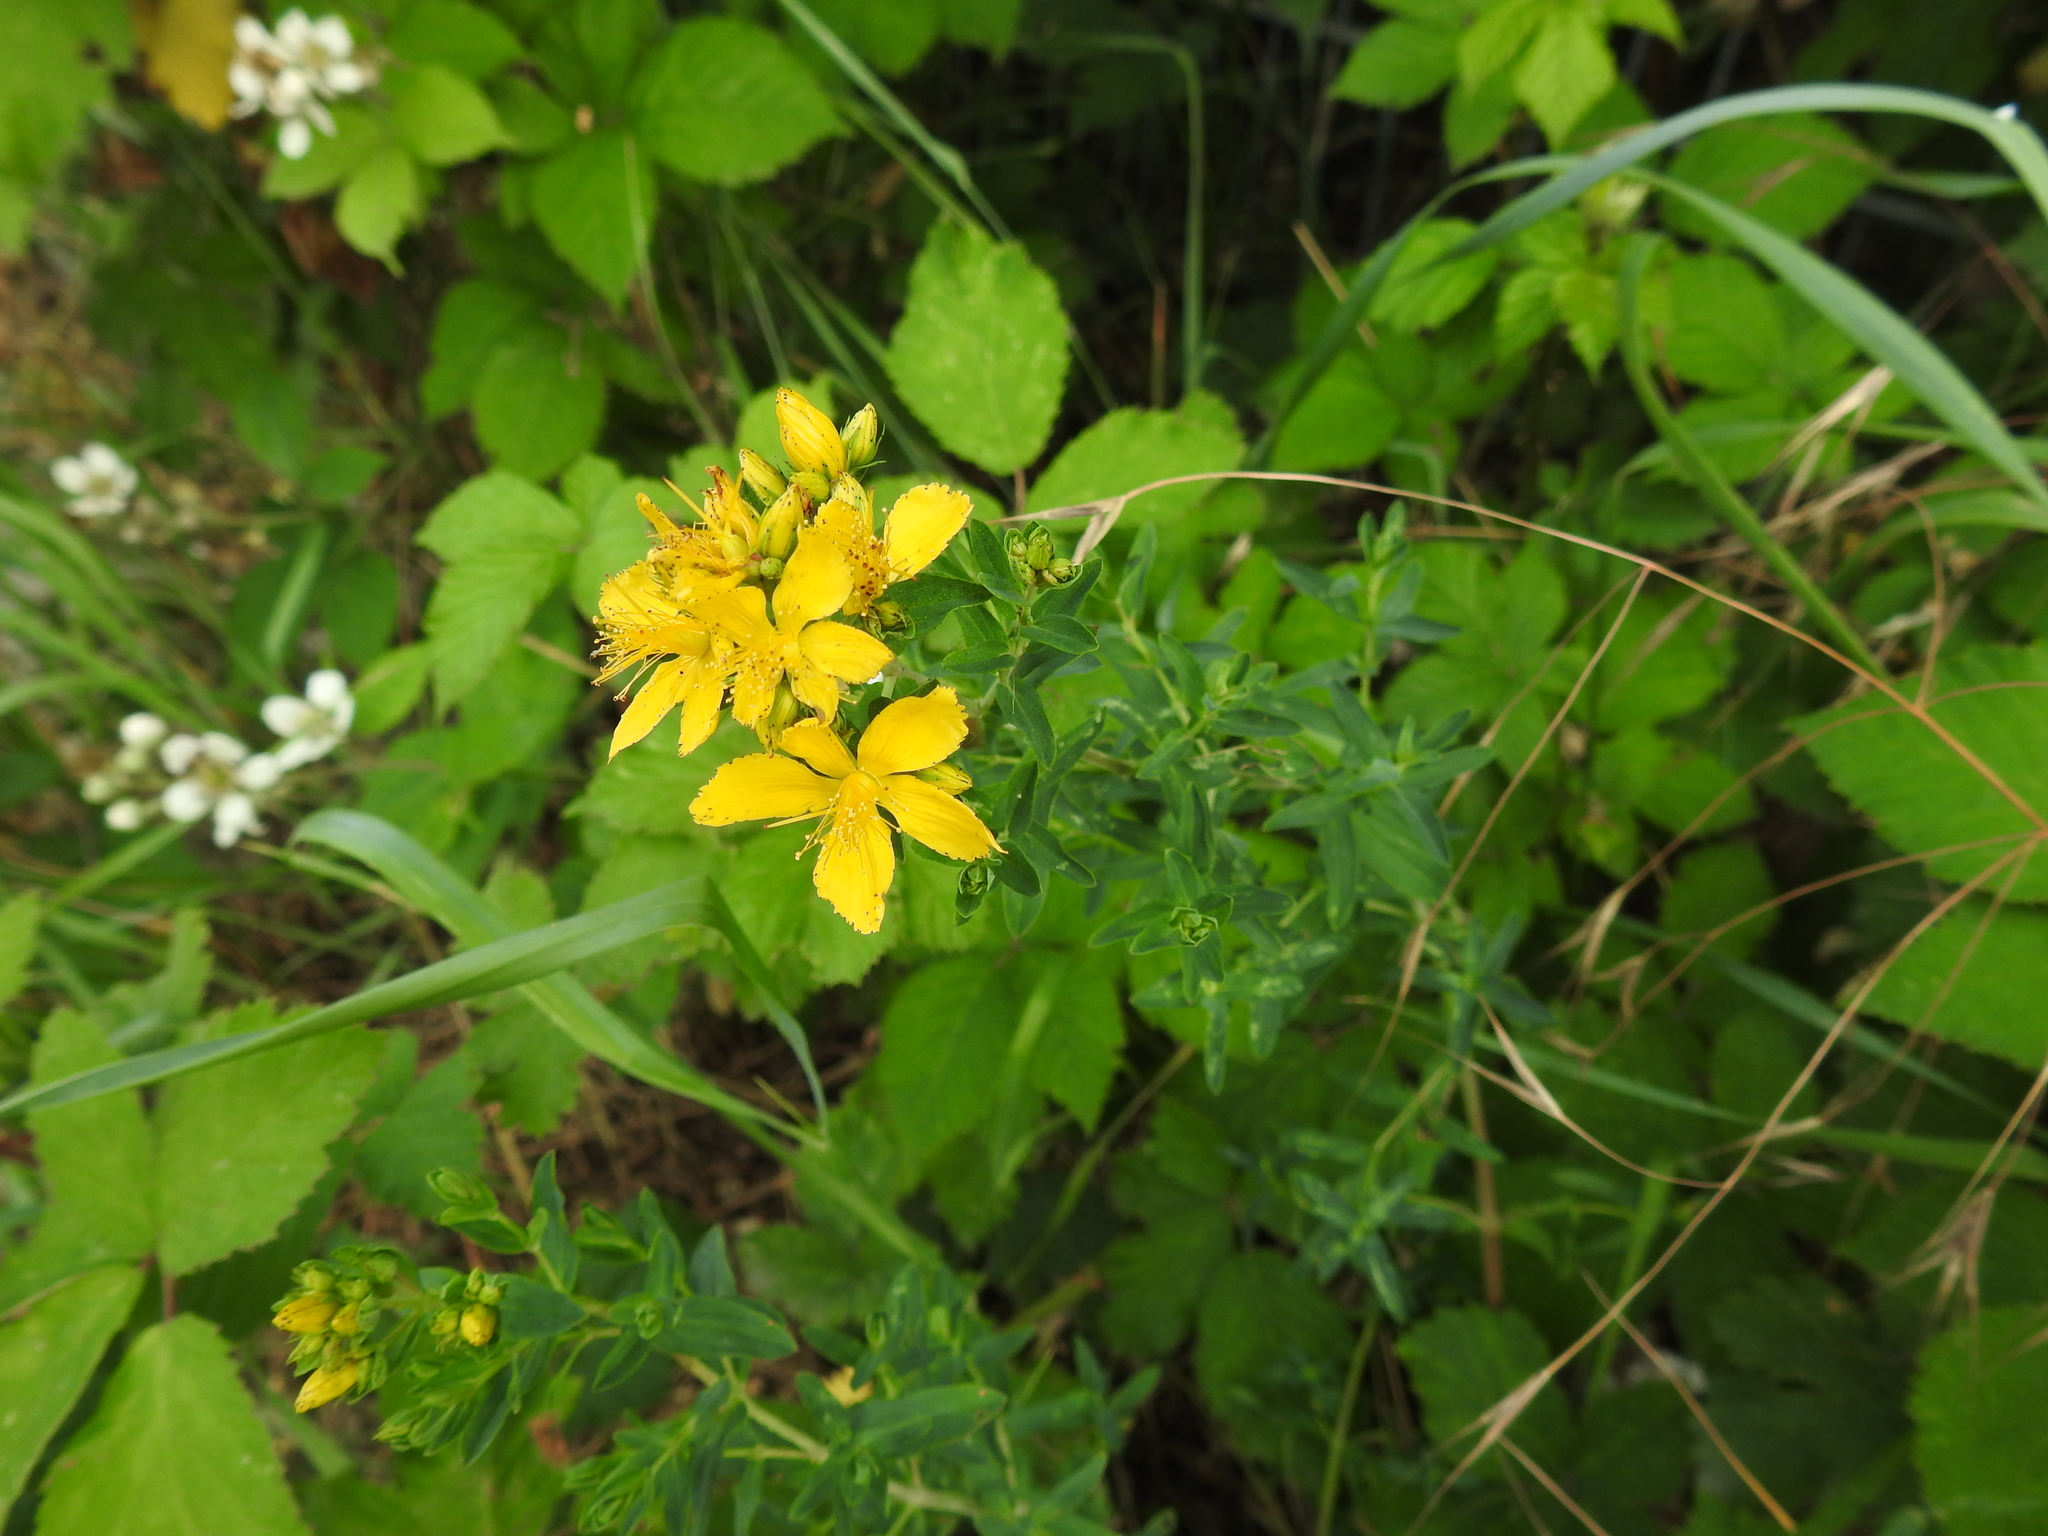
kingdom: Plantae
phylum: Tracheophyta
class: Magnoliopsida
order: Malpighiales
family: Hypericaceae
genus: Hypericum
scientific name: Hypericum perforatum
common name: Common st. johnswort
